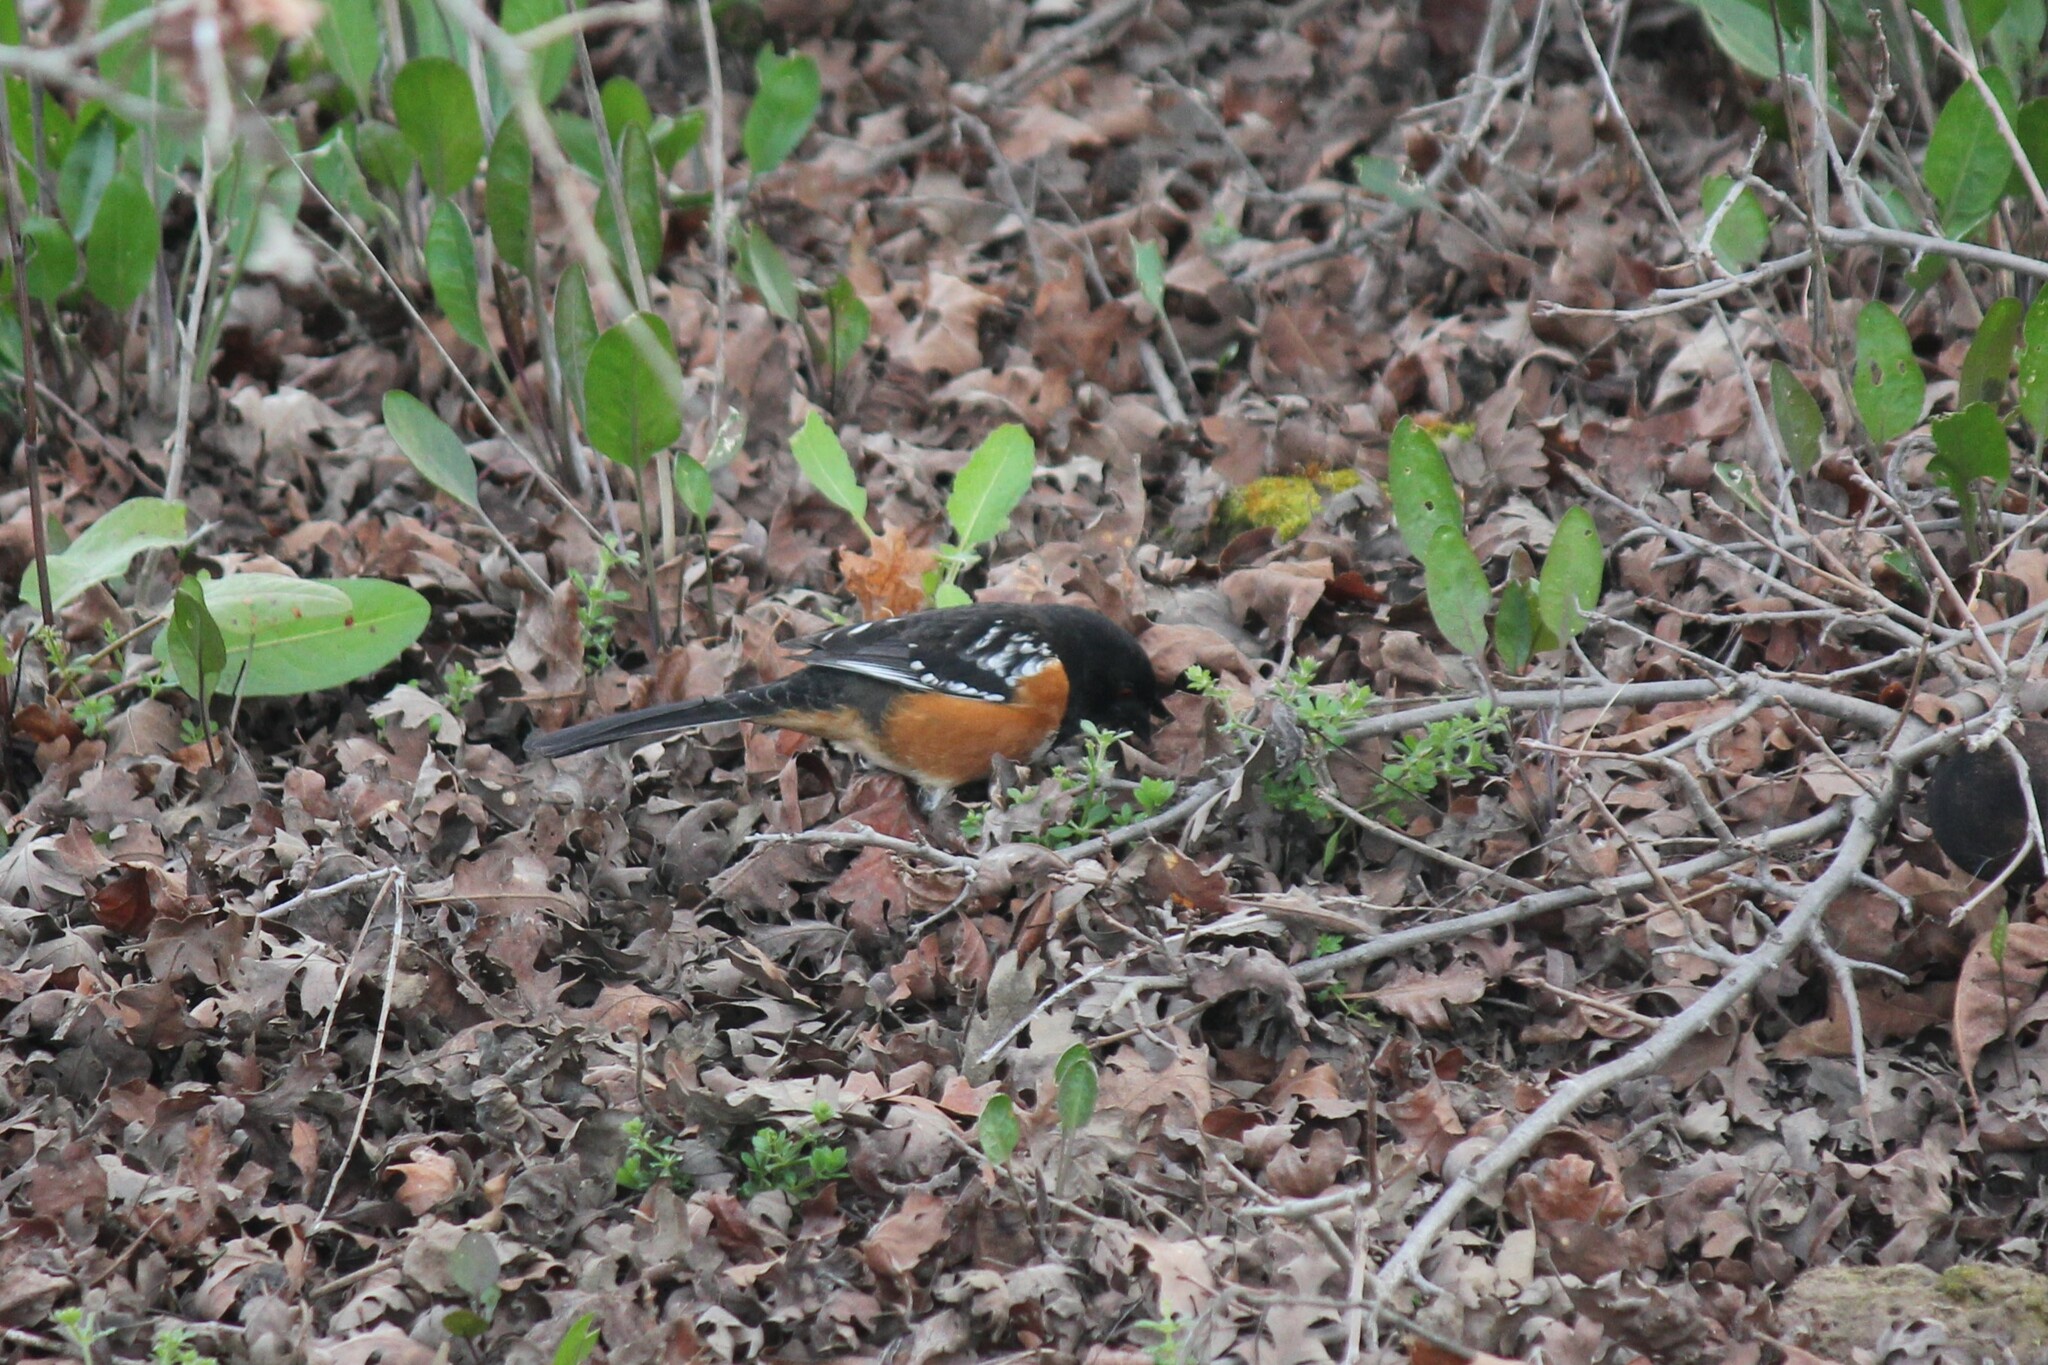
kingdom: Animalia
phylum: Chordata
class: Aves
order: Passeriformes
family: Passerellidae
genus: Pipilo
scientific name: Pipilo maculatus
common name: Spotted towhee
